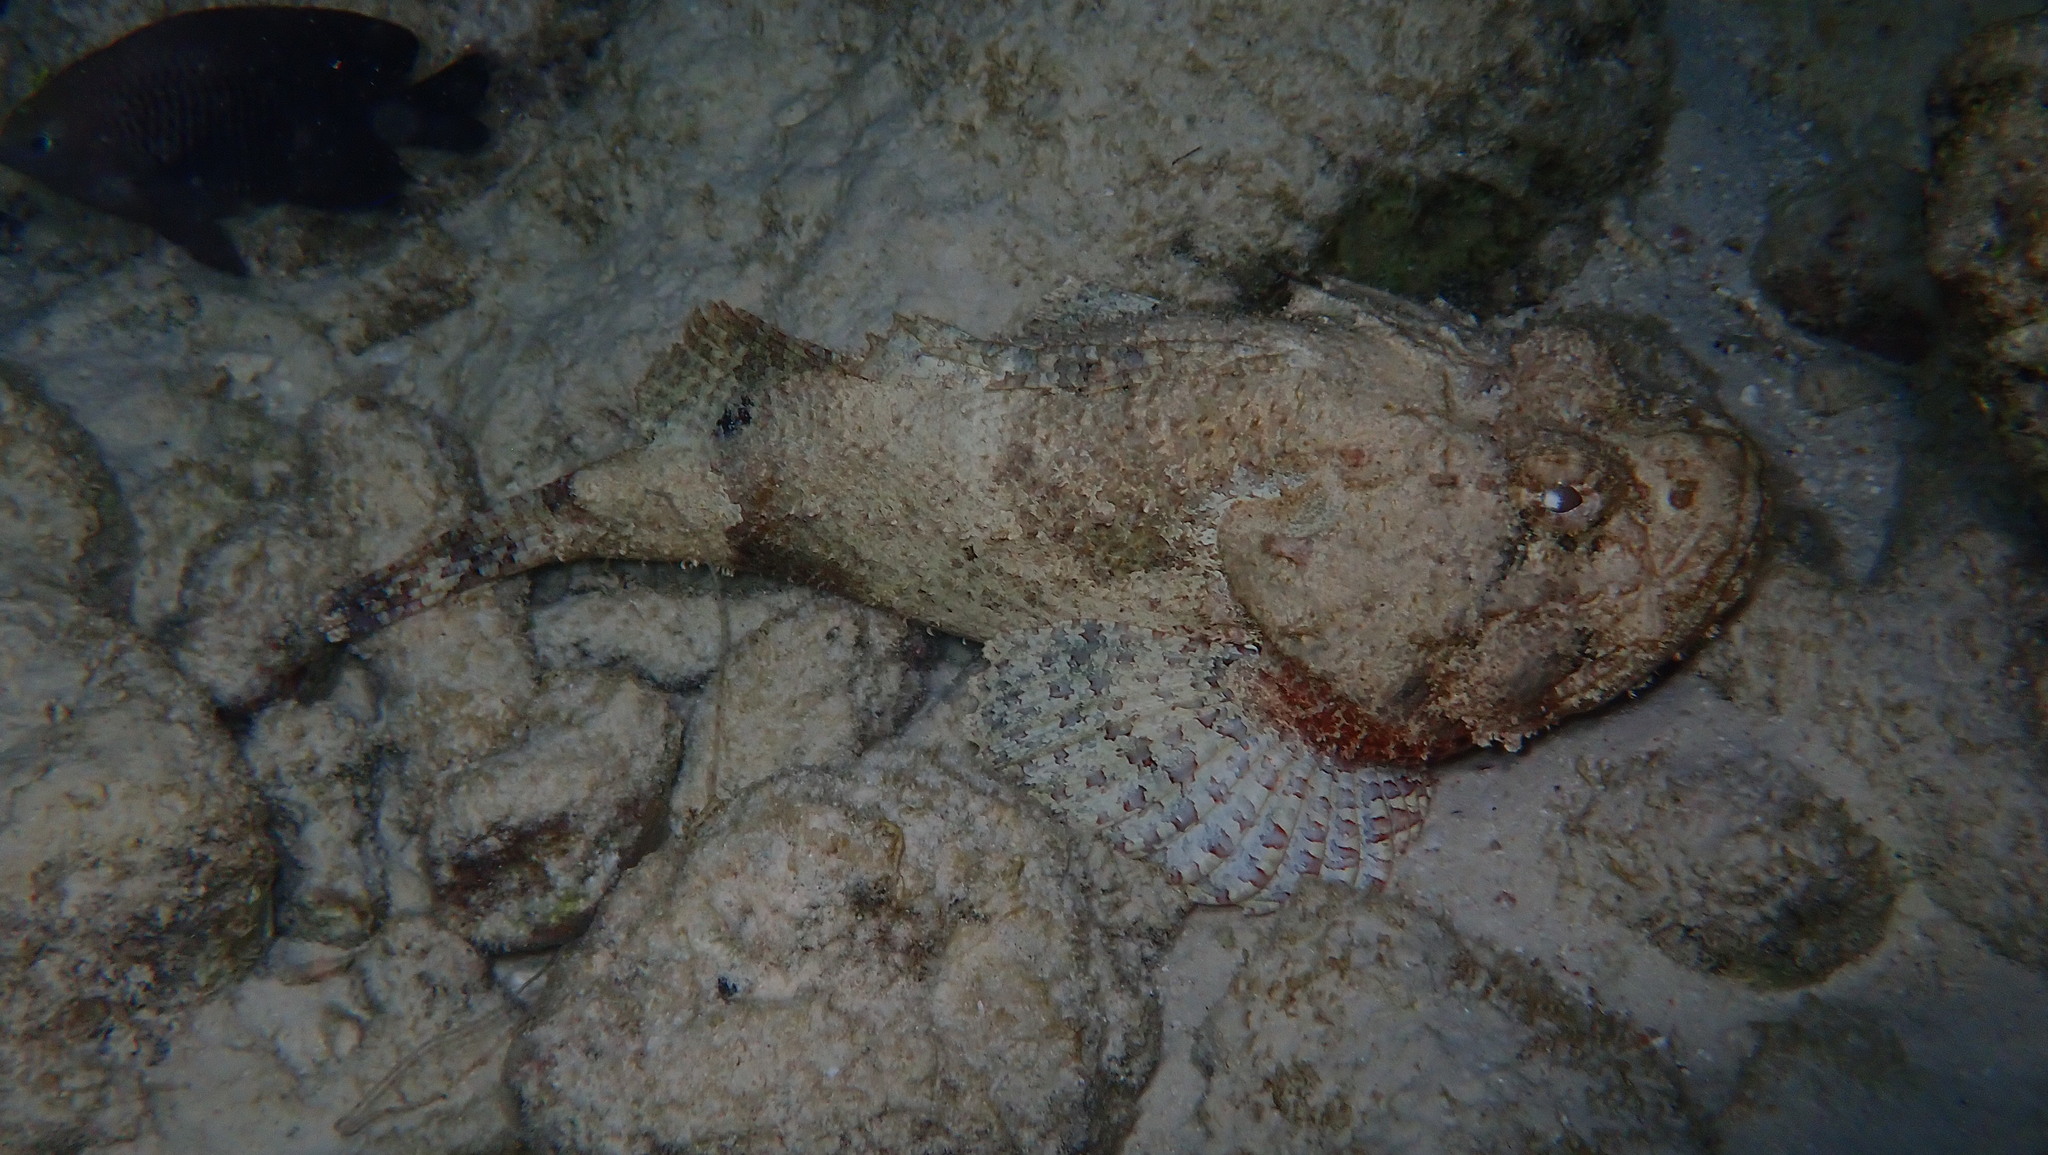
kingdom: Animalia
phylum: Chordata
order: Scorpaeniformes
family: Scorpaenidae
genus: Scorpaena
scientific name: Scorpaena plumieri
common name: Spotted scorpionfish
